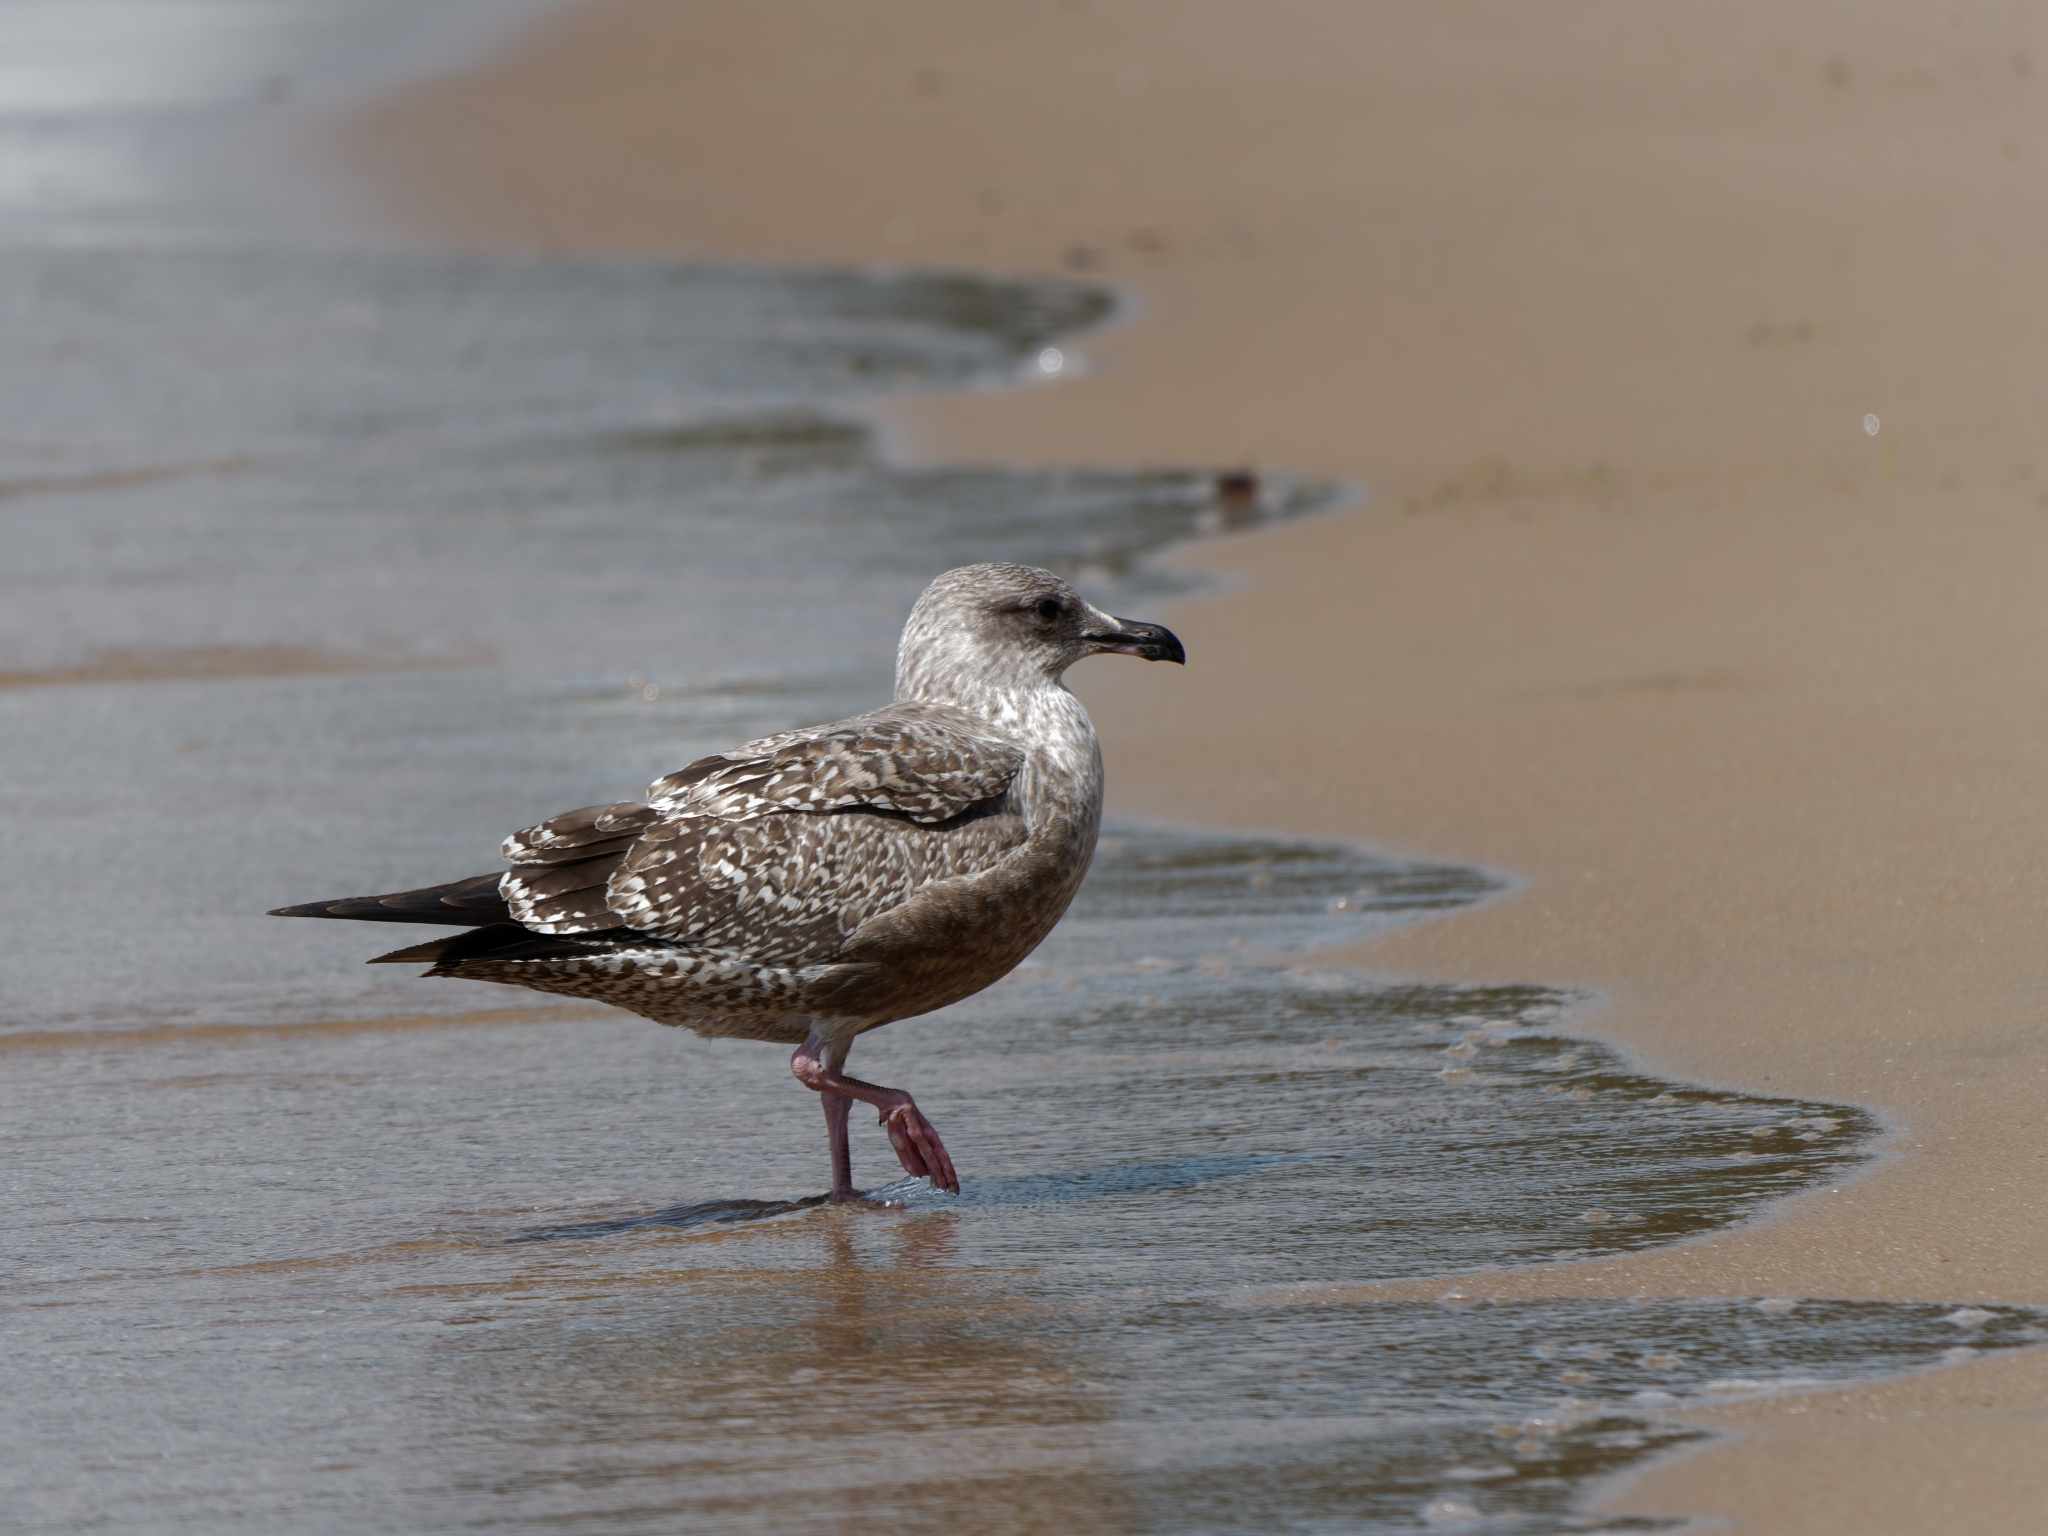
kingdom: Animalia
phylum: Chordata
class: Aves
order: Charadriiformes
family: Laridae
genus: Larus
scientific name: Larus argentatus
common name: Herring gull
